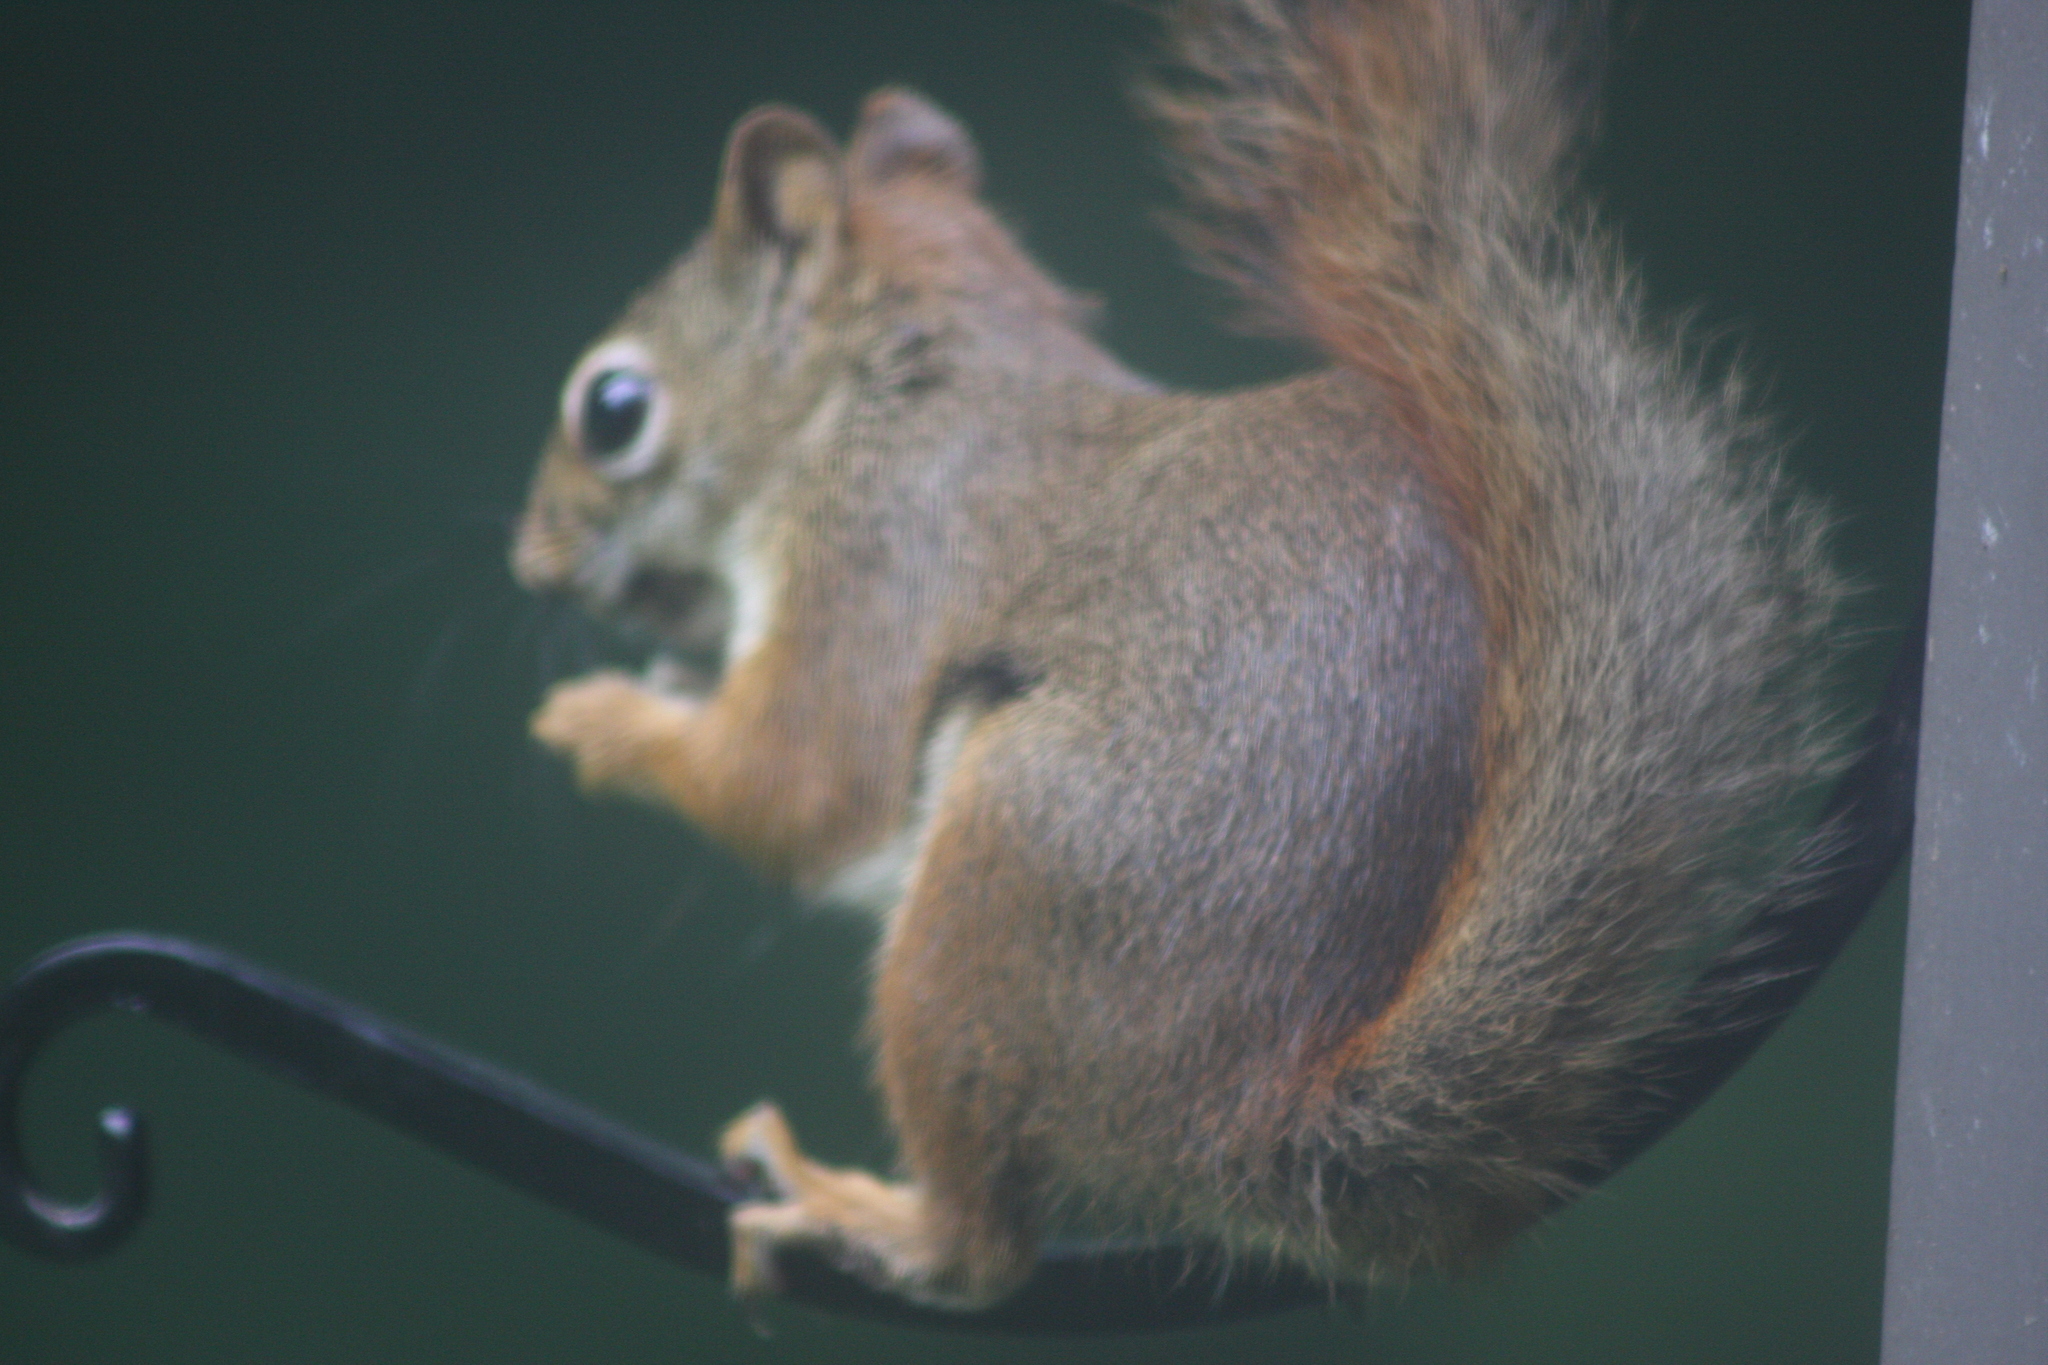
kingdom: Animalia
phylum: Chordata
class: Mammalia
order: Rodentia
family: Sciuridae
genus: Tamiasciurus
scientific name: Tamiasciurus hudsonicus
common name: Red squirrel
